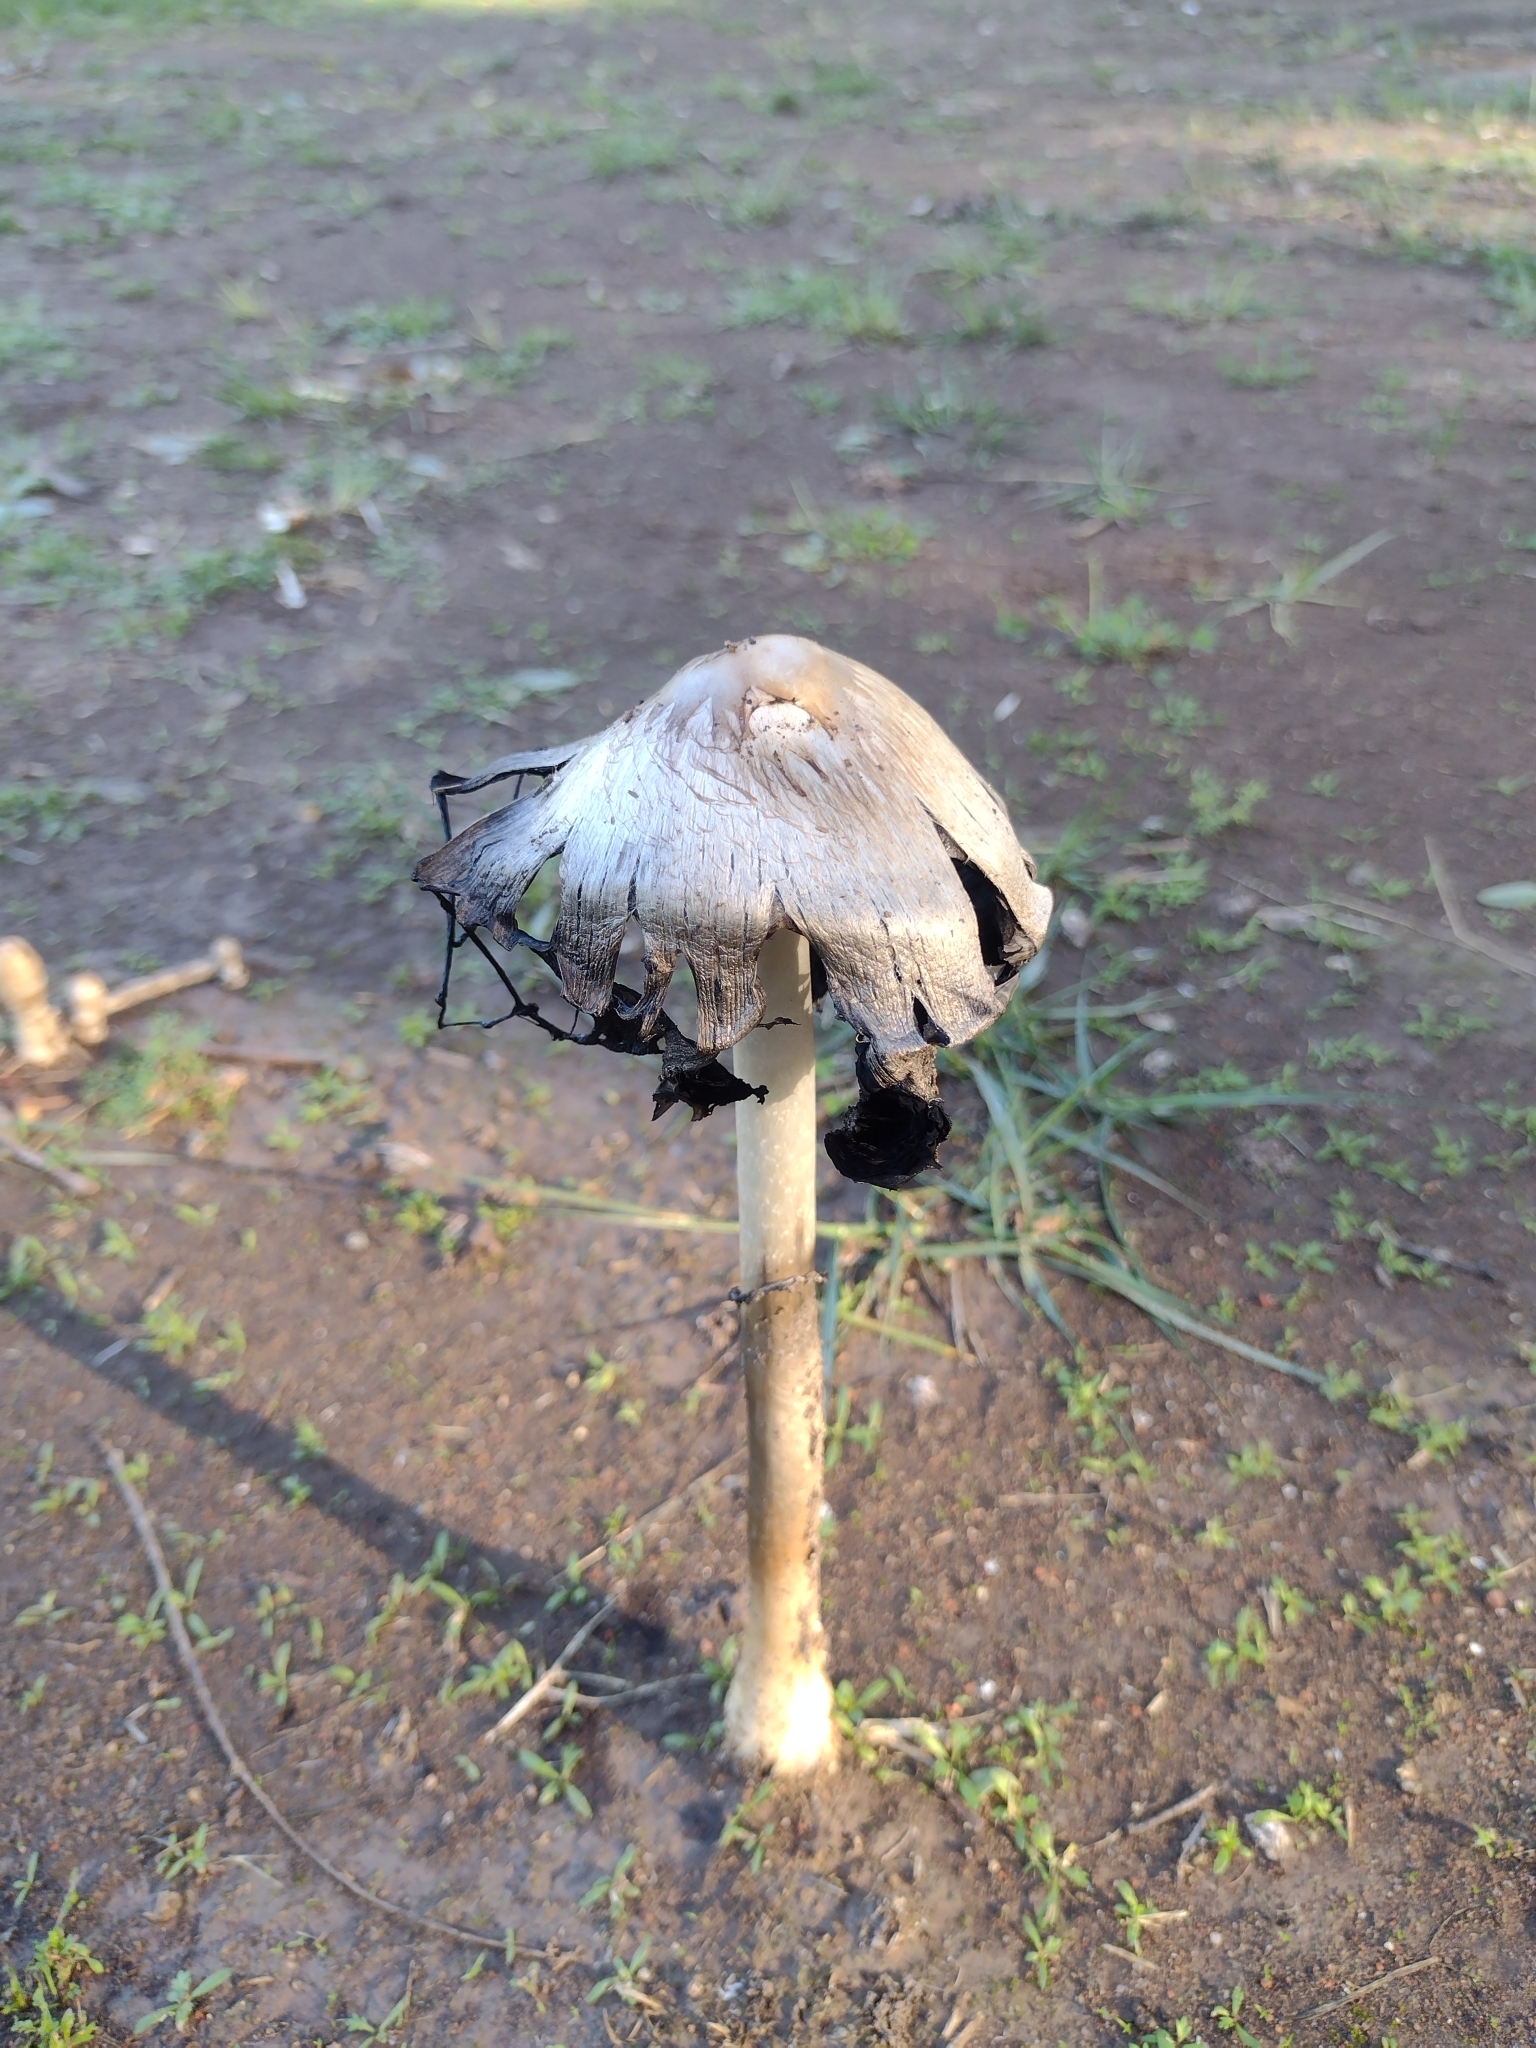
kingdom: Fungi
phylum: Basidiomycota
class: Agaricomycetes
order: Agaricales
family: Agaricaceae
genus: Coprinus
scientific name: Coprinus comatus
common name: Lawyer's wig
